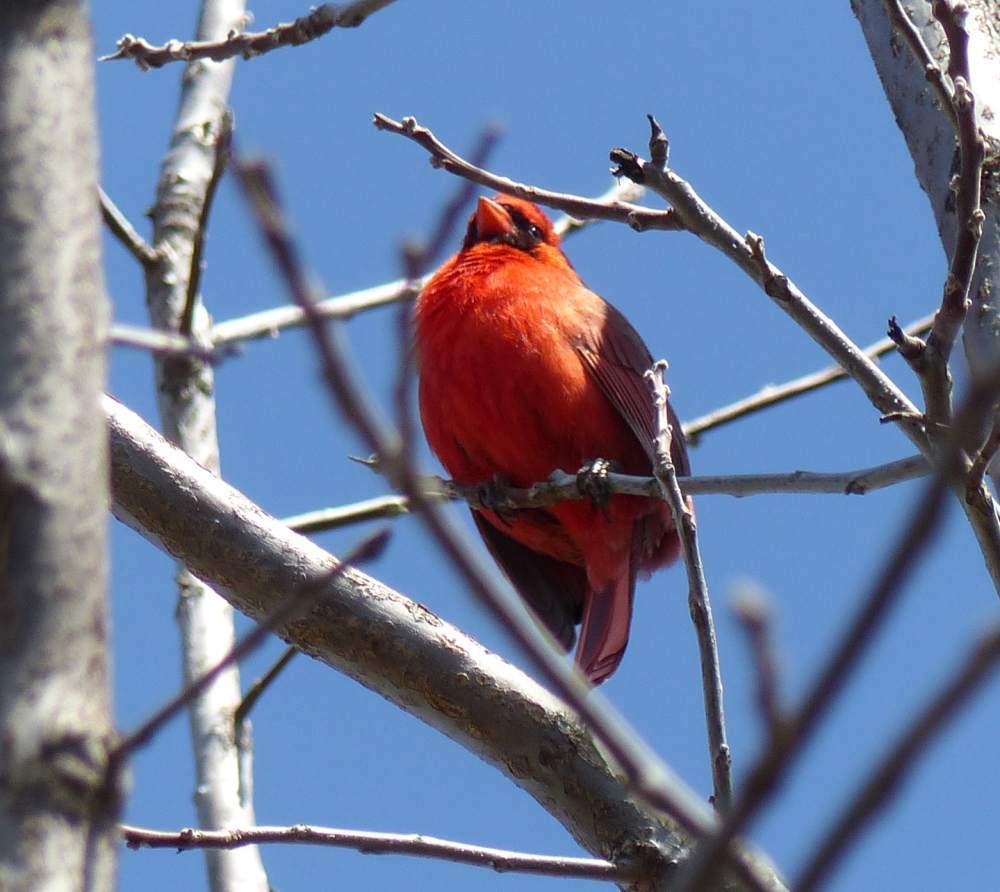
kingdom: Animalia
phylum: Chordata
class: Aves
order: Passeriformes
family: Cardinalidae
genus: Cardinalis
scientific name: Cardinalis cardinalis
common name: Northern cardinal
